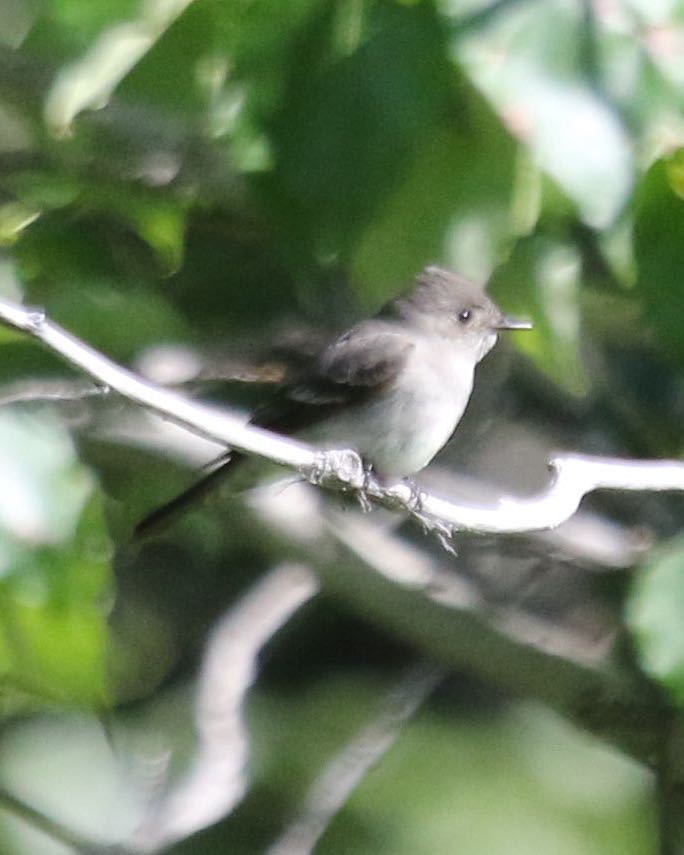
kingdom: Animalia
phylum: Chordata
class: Aves
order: Passeriformes
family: Tyrannidae
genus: Contopus
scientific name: Contopus sordidulus
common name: Western wood-pewee
